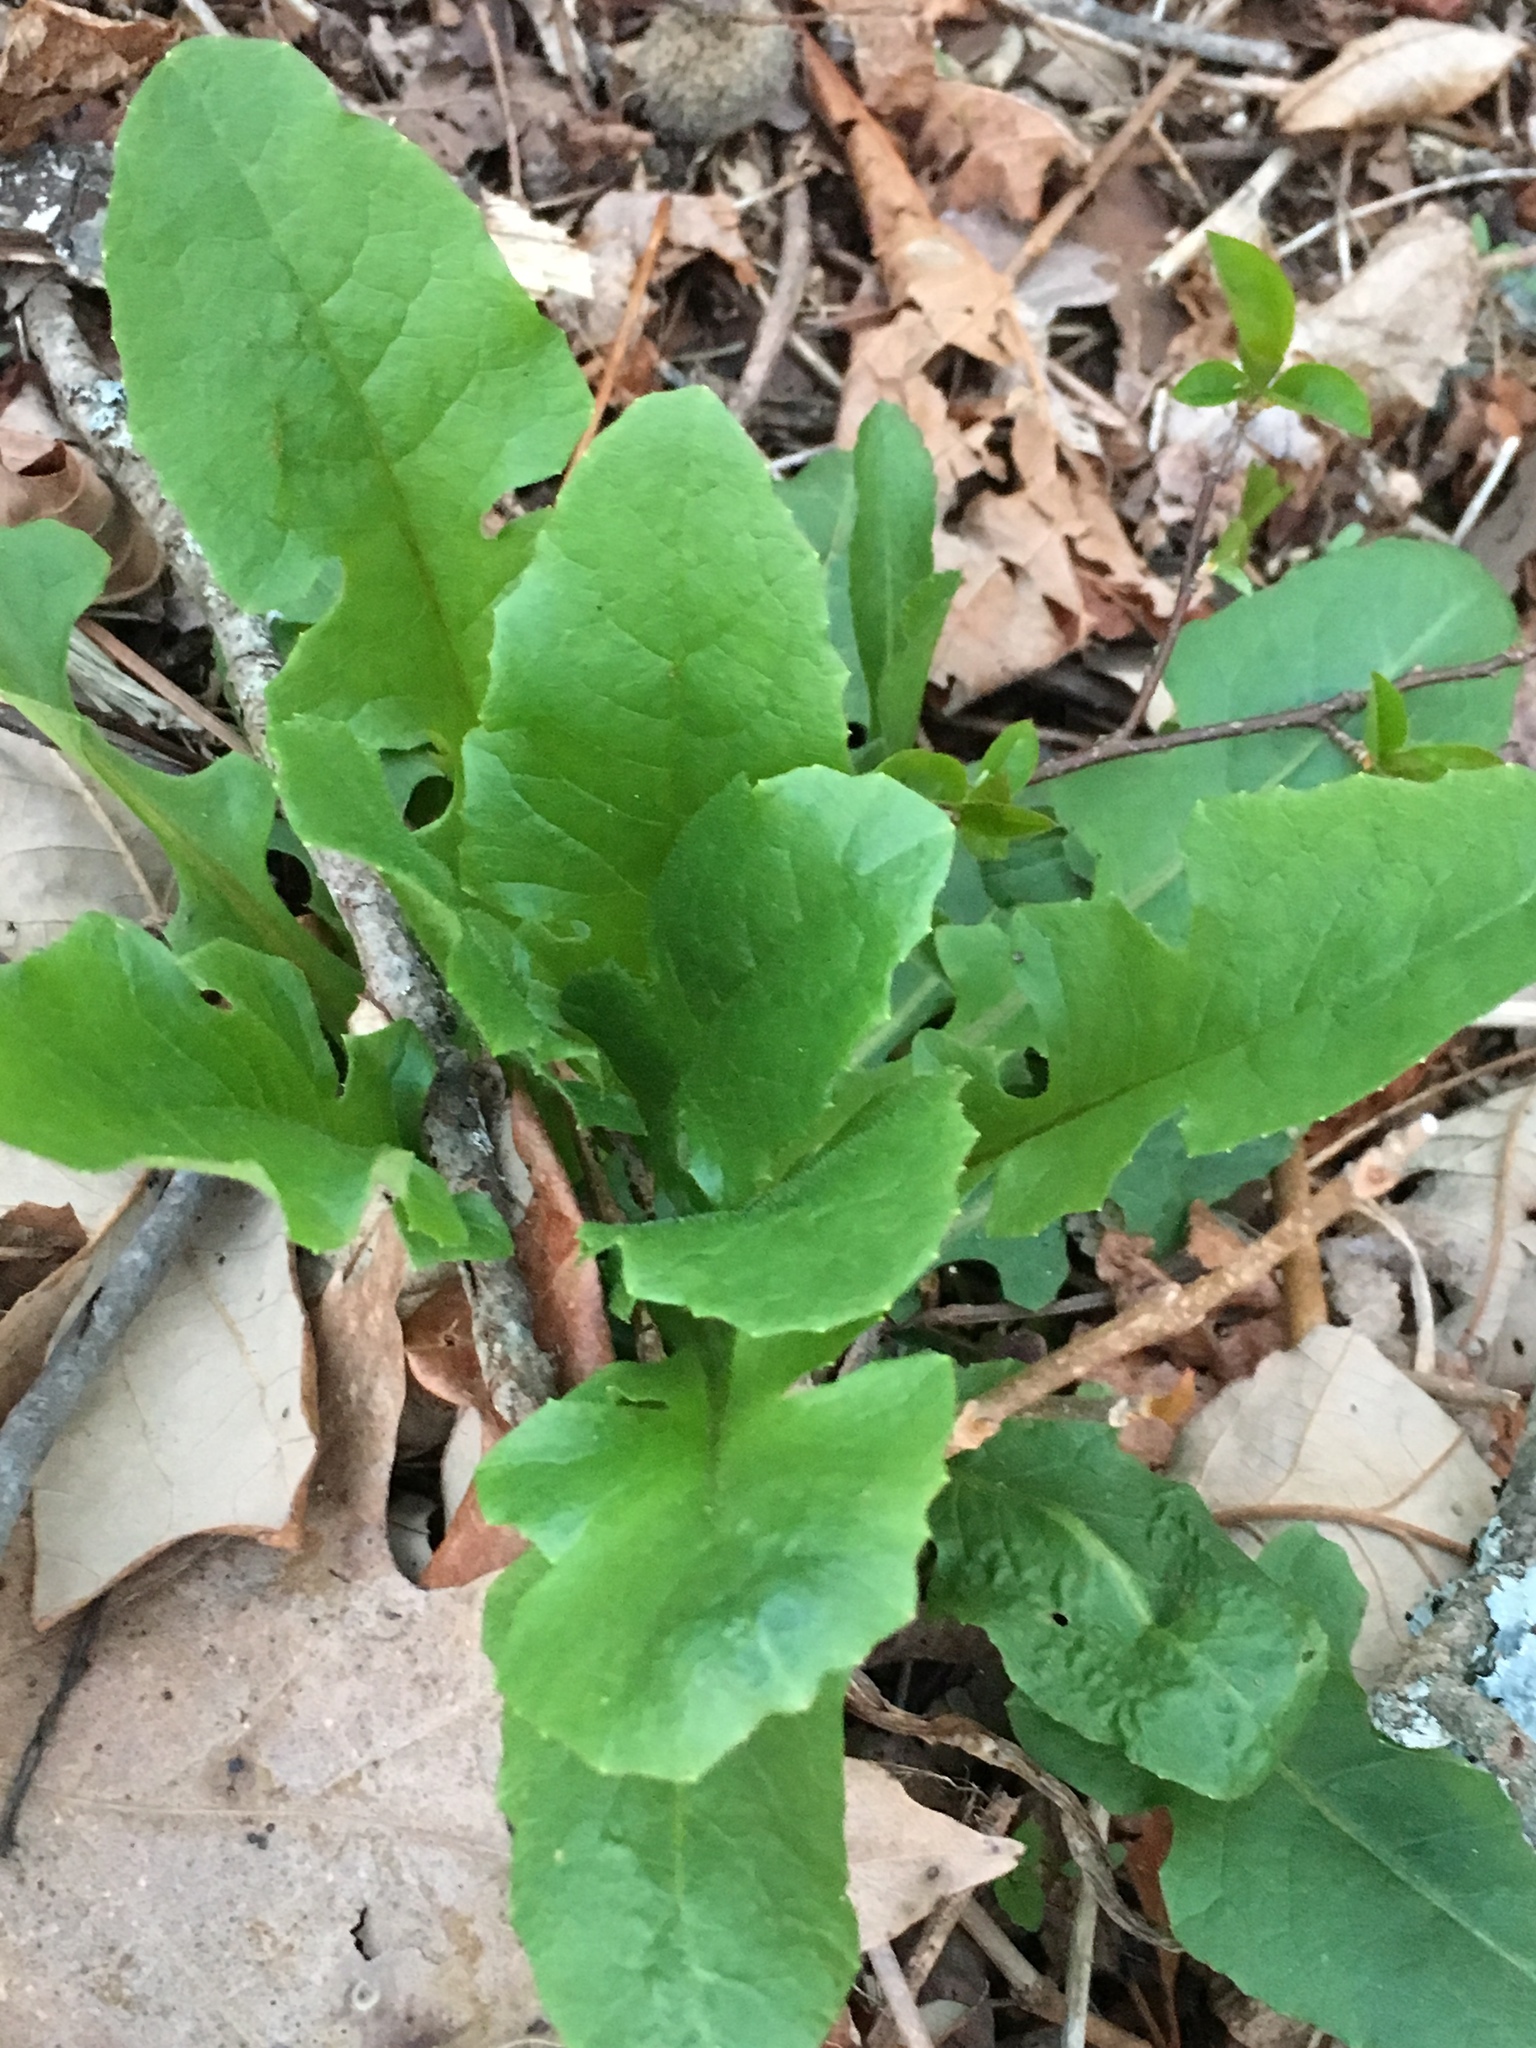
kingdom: Plantae
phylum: Tracheophyta
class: Magnoliopsida
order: Asterales
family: Asteraceae
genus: Taraxacum
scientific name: Taraxacum officinale
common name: Common dandelion
